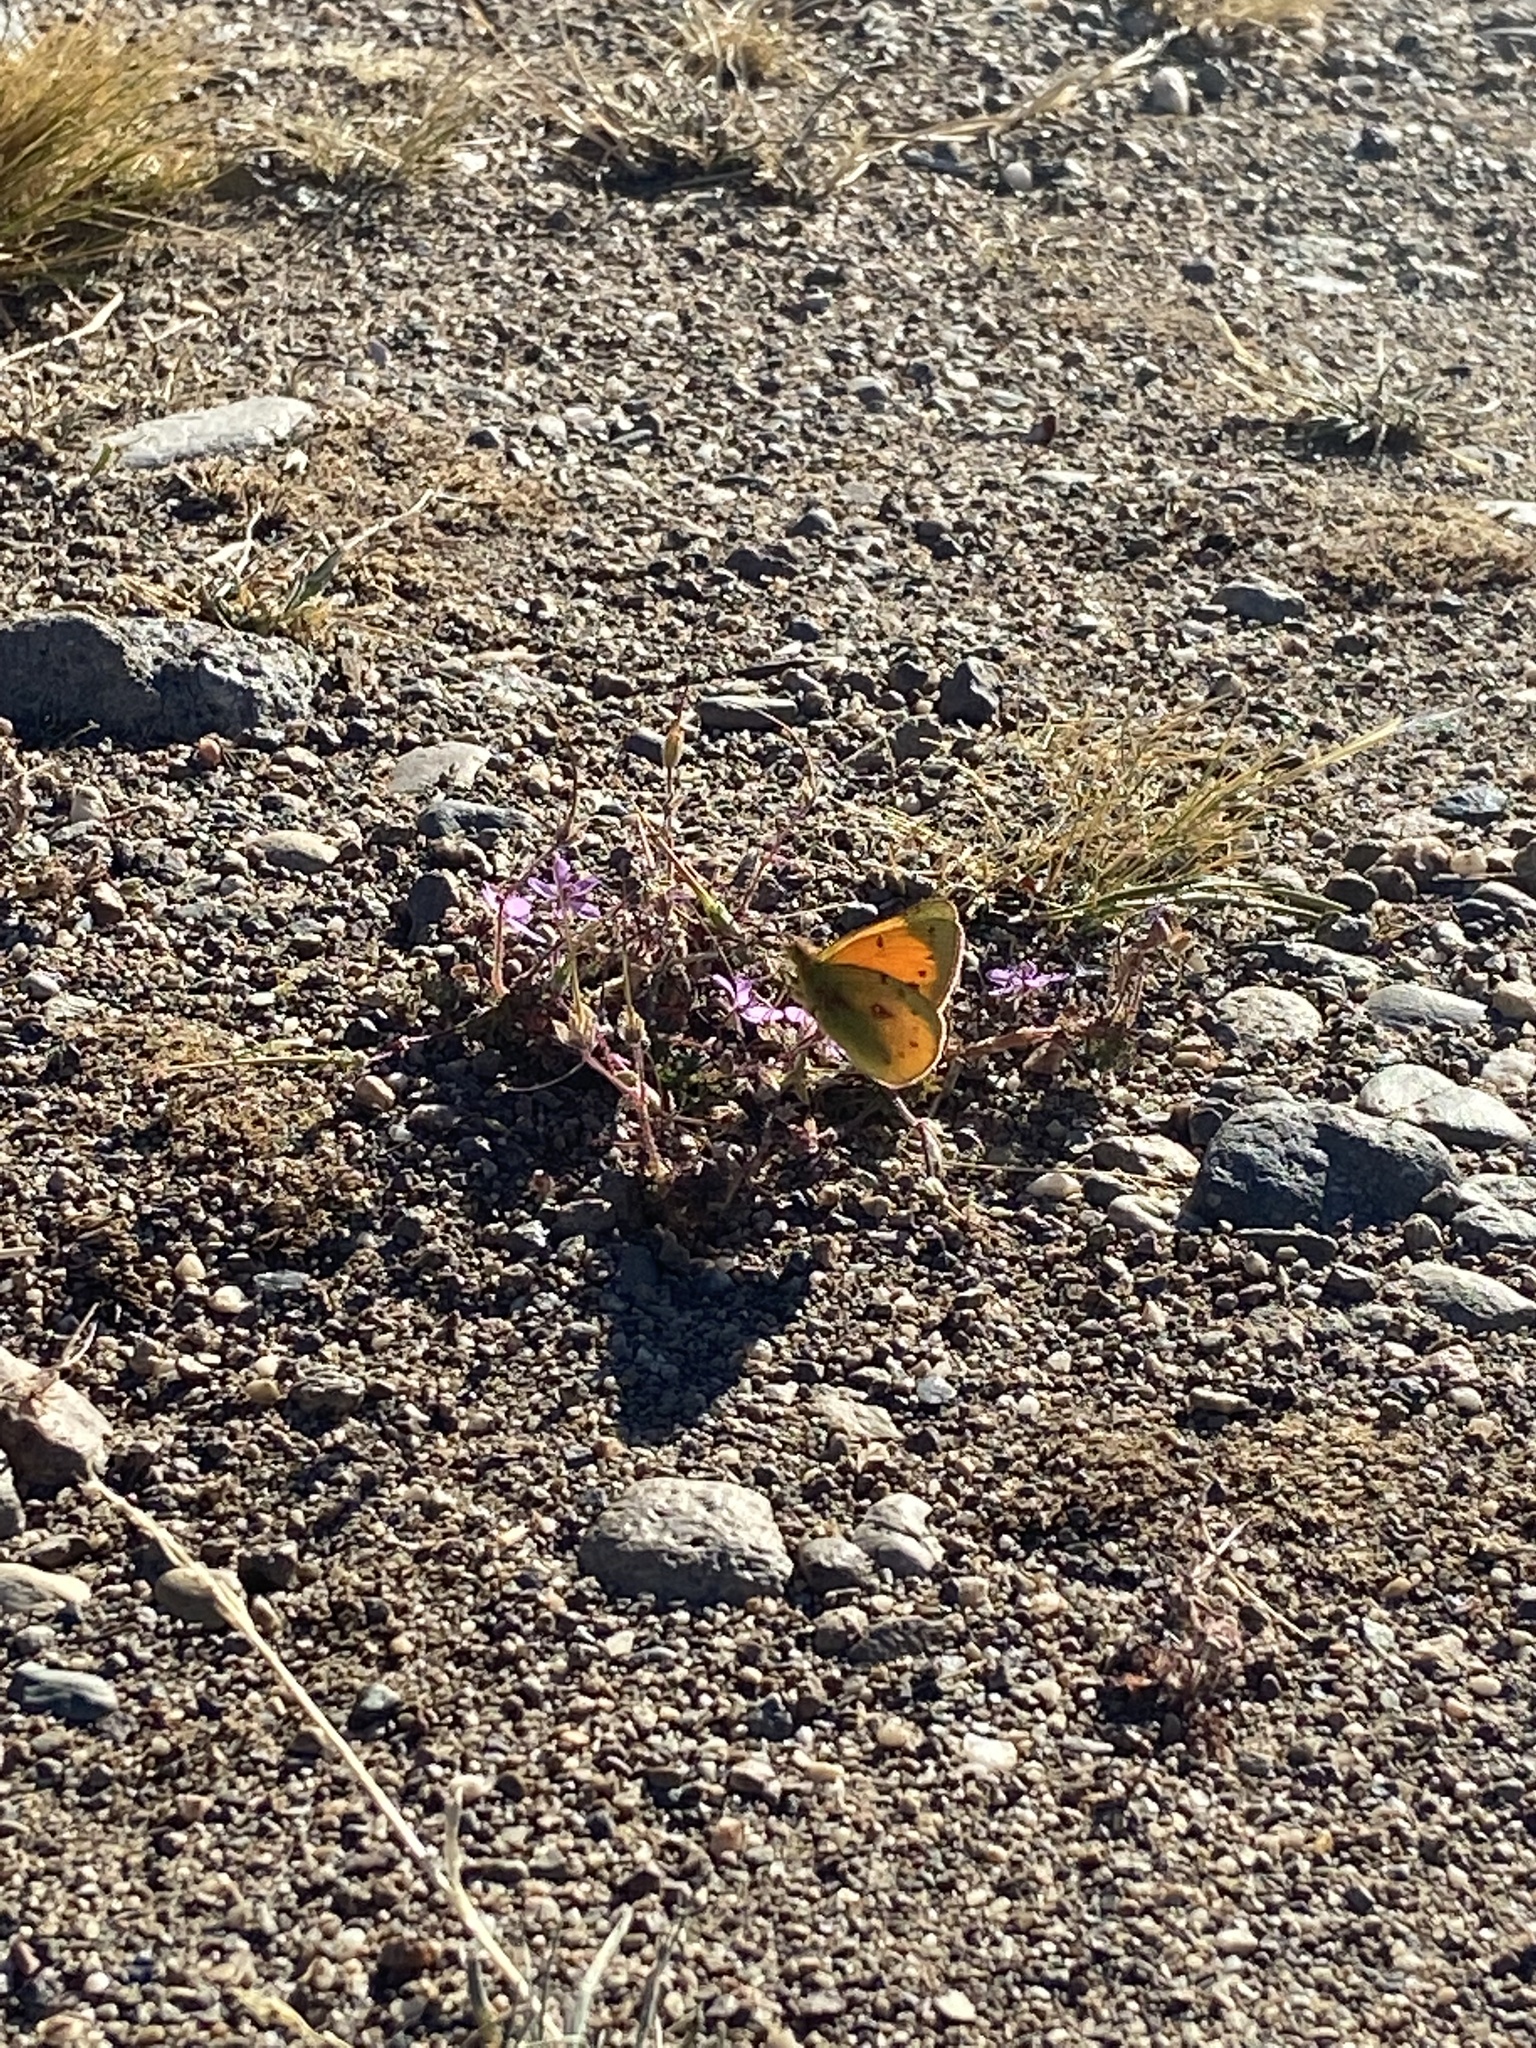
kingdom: Animalia
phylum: Arthropoda
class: Insecta
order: Lepidoptera
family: Pieridae
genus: Colias
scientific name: Colias vauthierii
